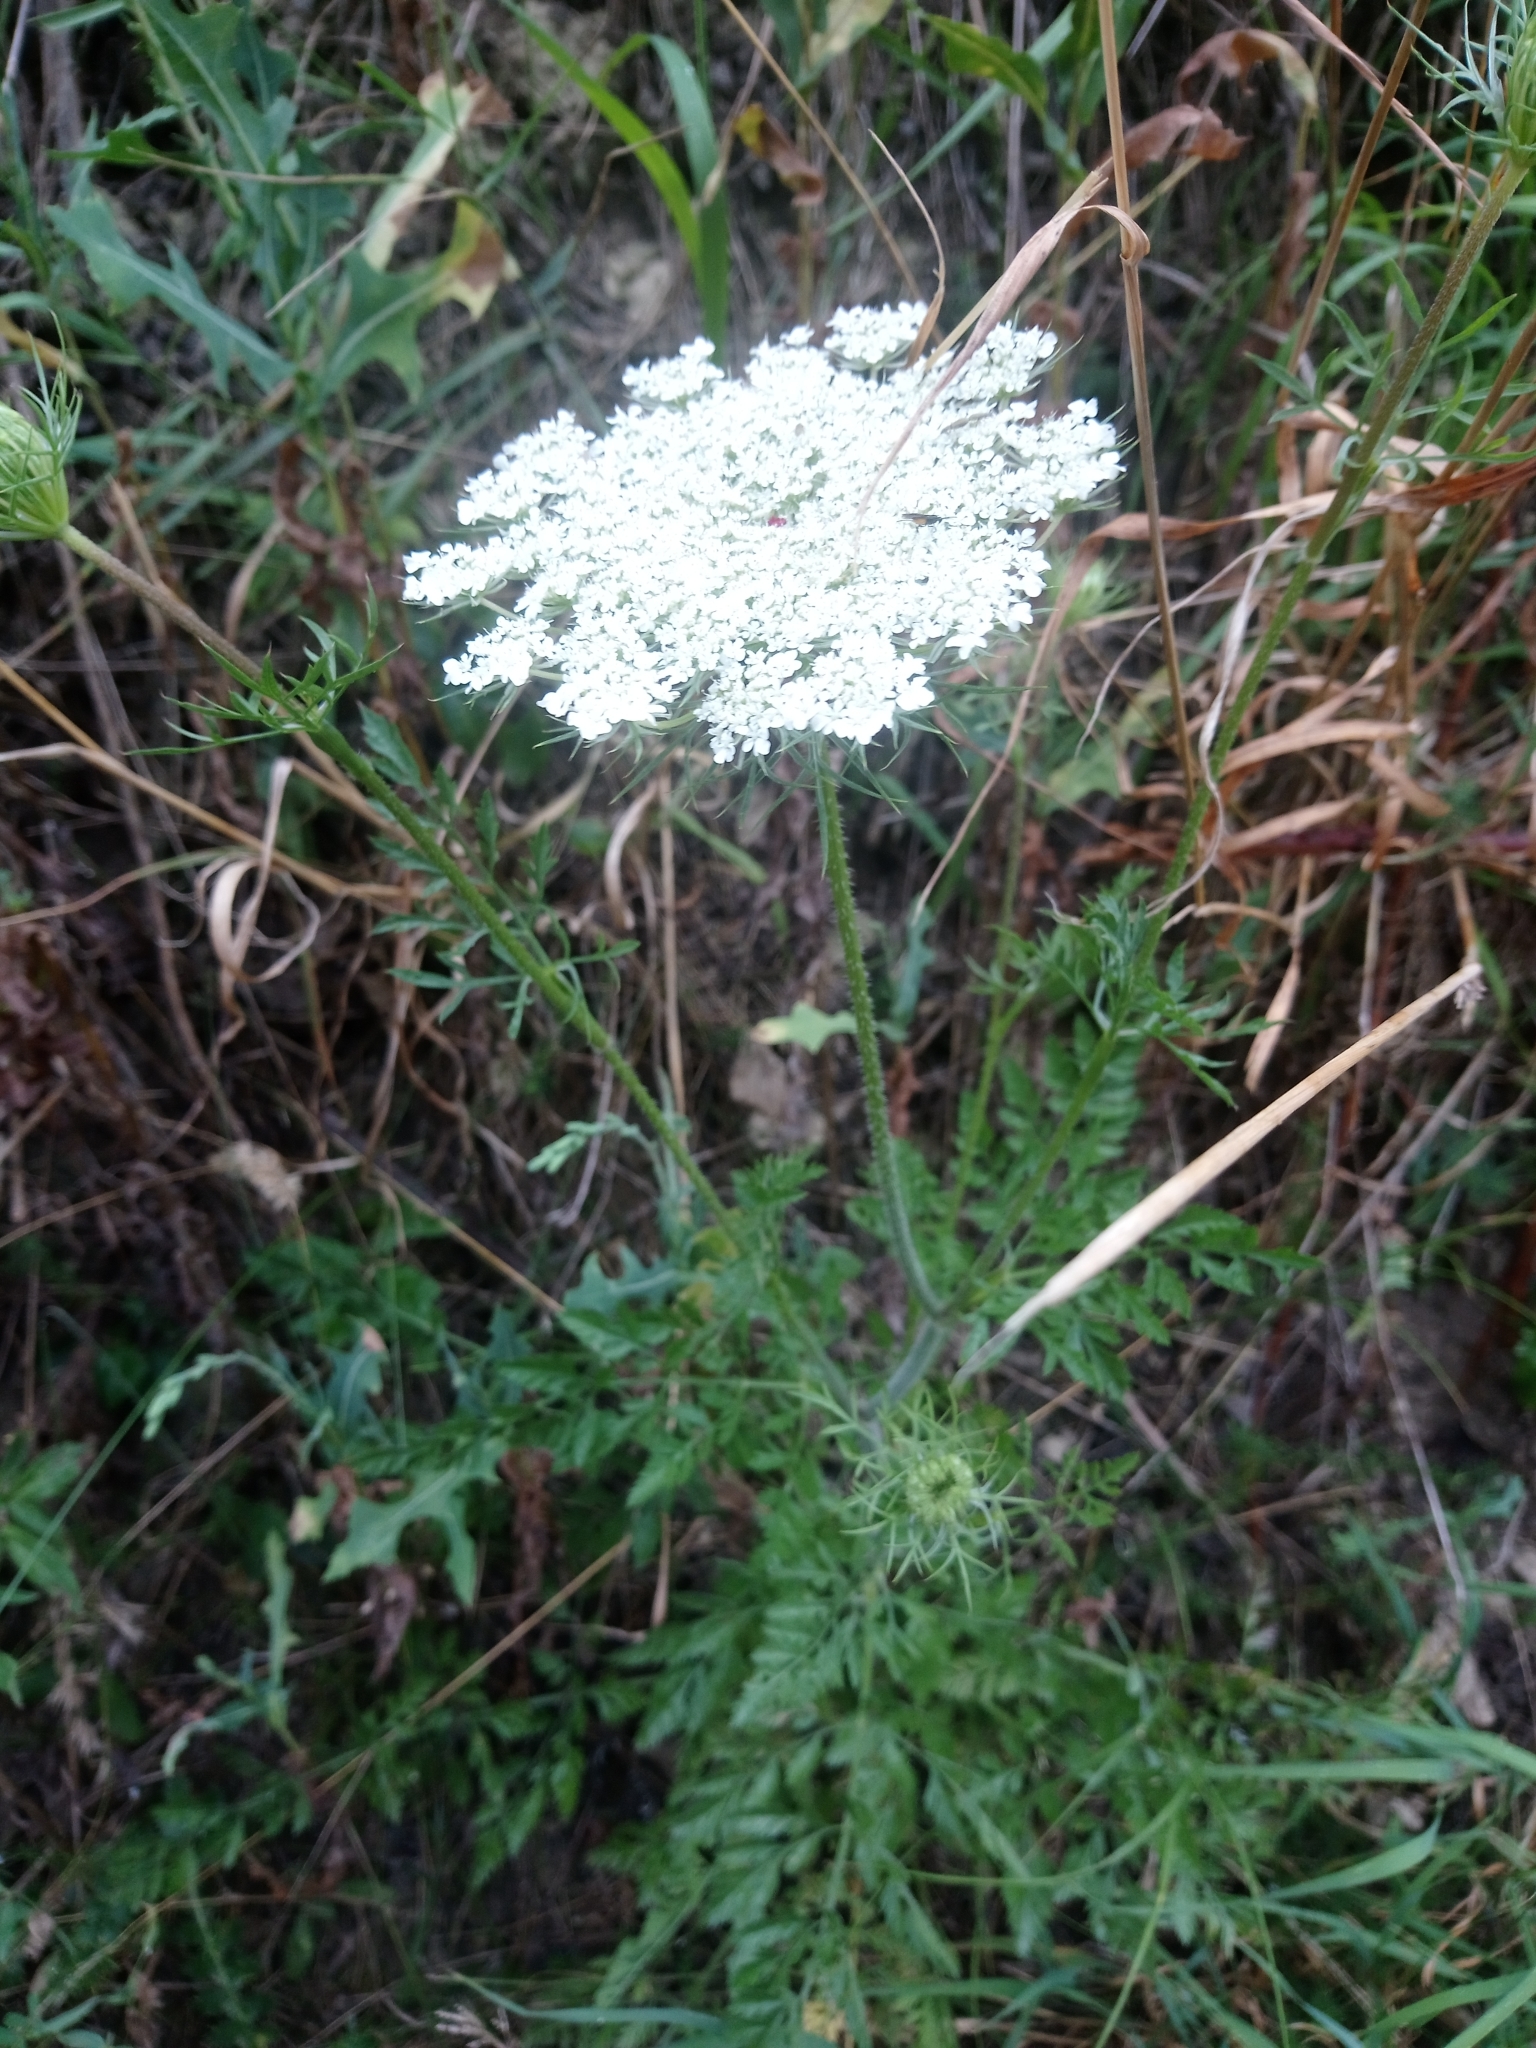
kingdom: Plantae
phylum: Tracheophyta
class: Magnoliopsida
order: Apiales
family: Apiaceae
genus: Daucus
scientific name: Daucus carota
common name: Wild carrot
